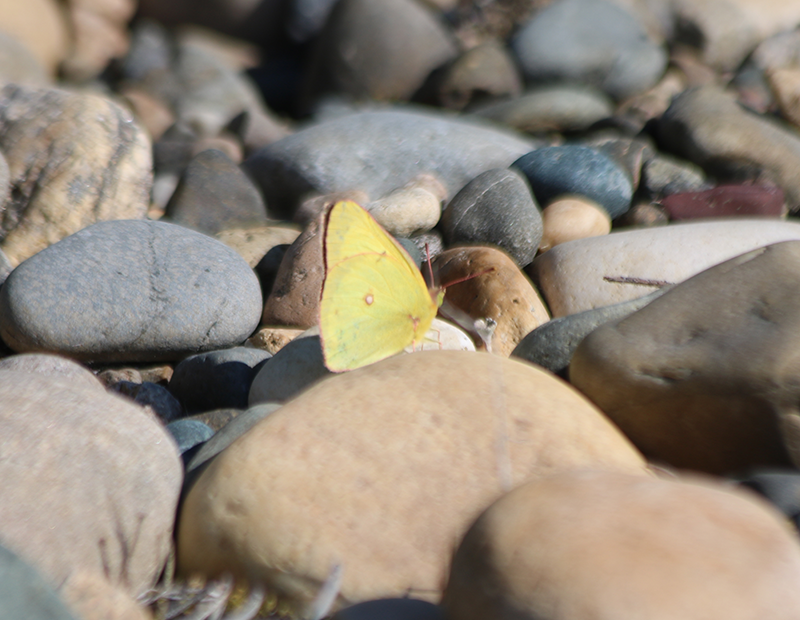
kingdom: Animalia
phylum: Arthropoda
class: Insecta
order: Lepidoptera
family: Pieridae
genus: Colias
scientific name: Colias philodice
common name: Clouded sulphur
